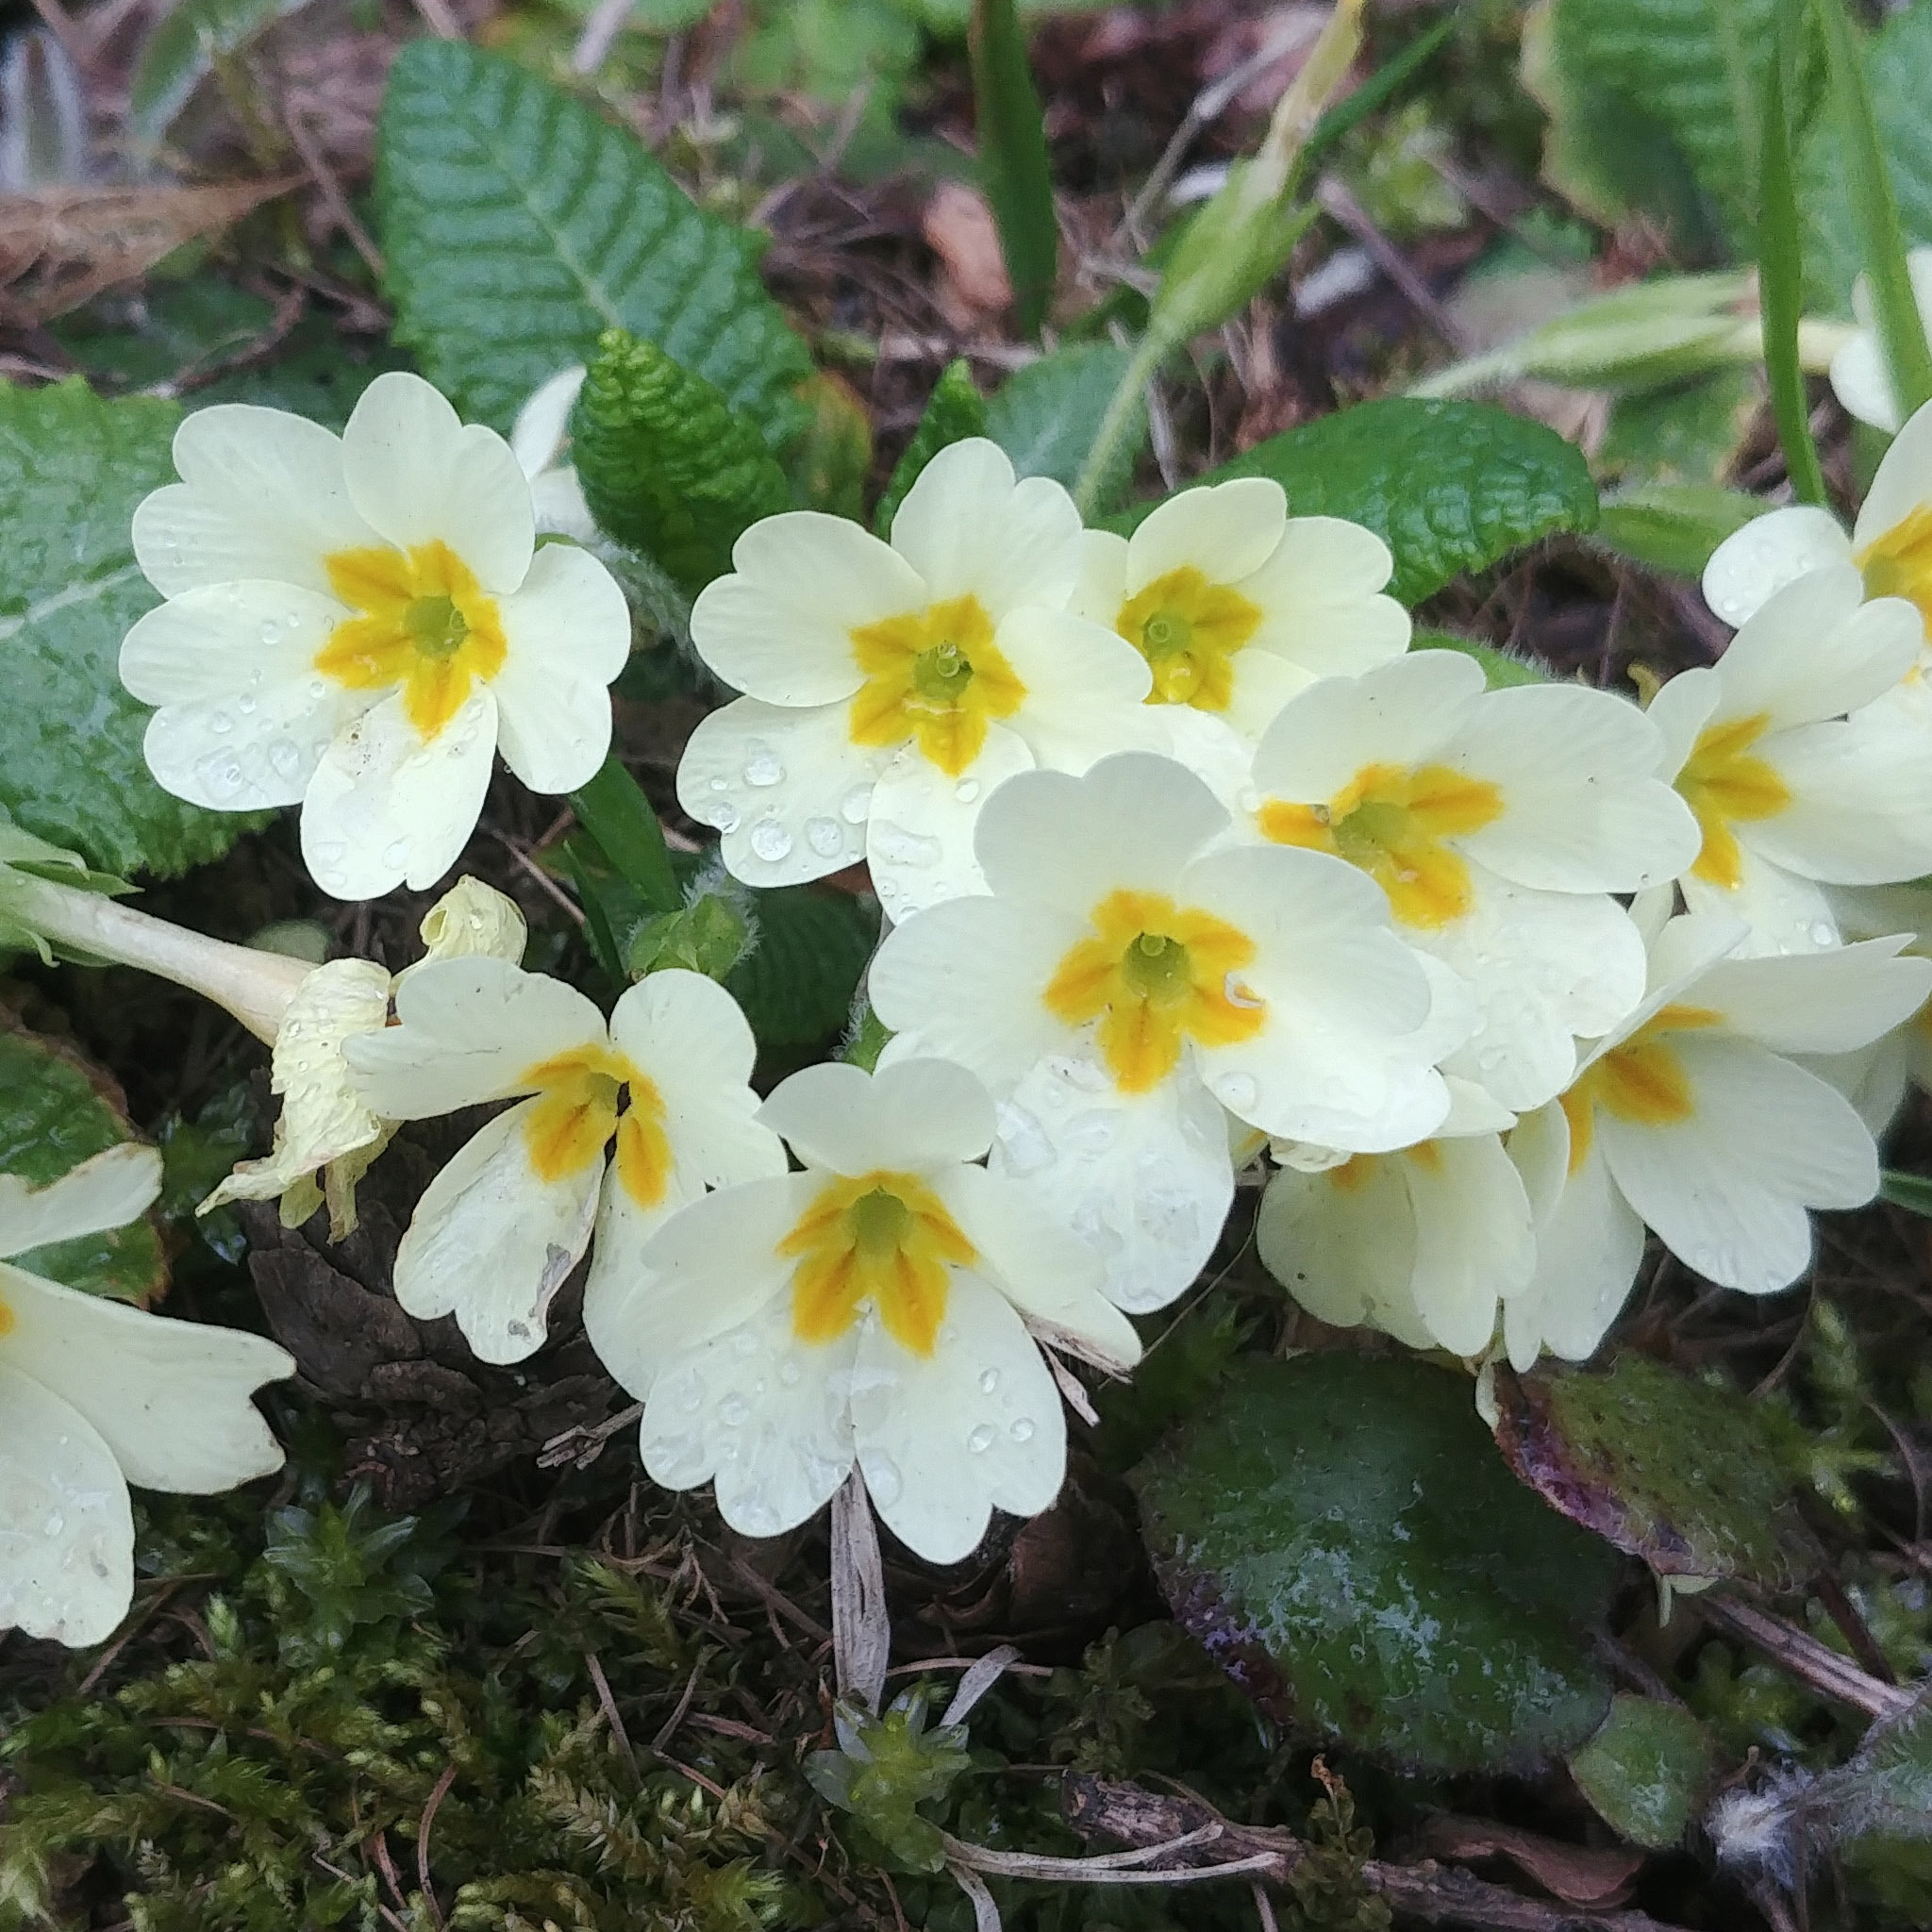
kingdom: Plantae
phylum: Tracheophyta
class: Magnoliopsida
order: Ericales
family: Primulaceae
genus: Primula
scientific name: Primula vulgaris
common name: Primrose
